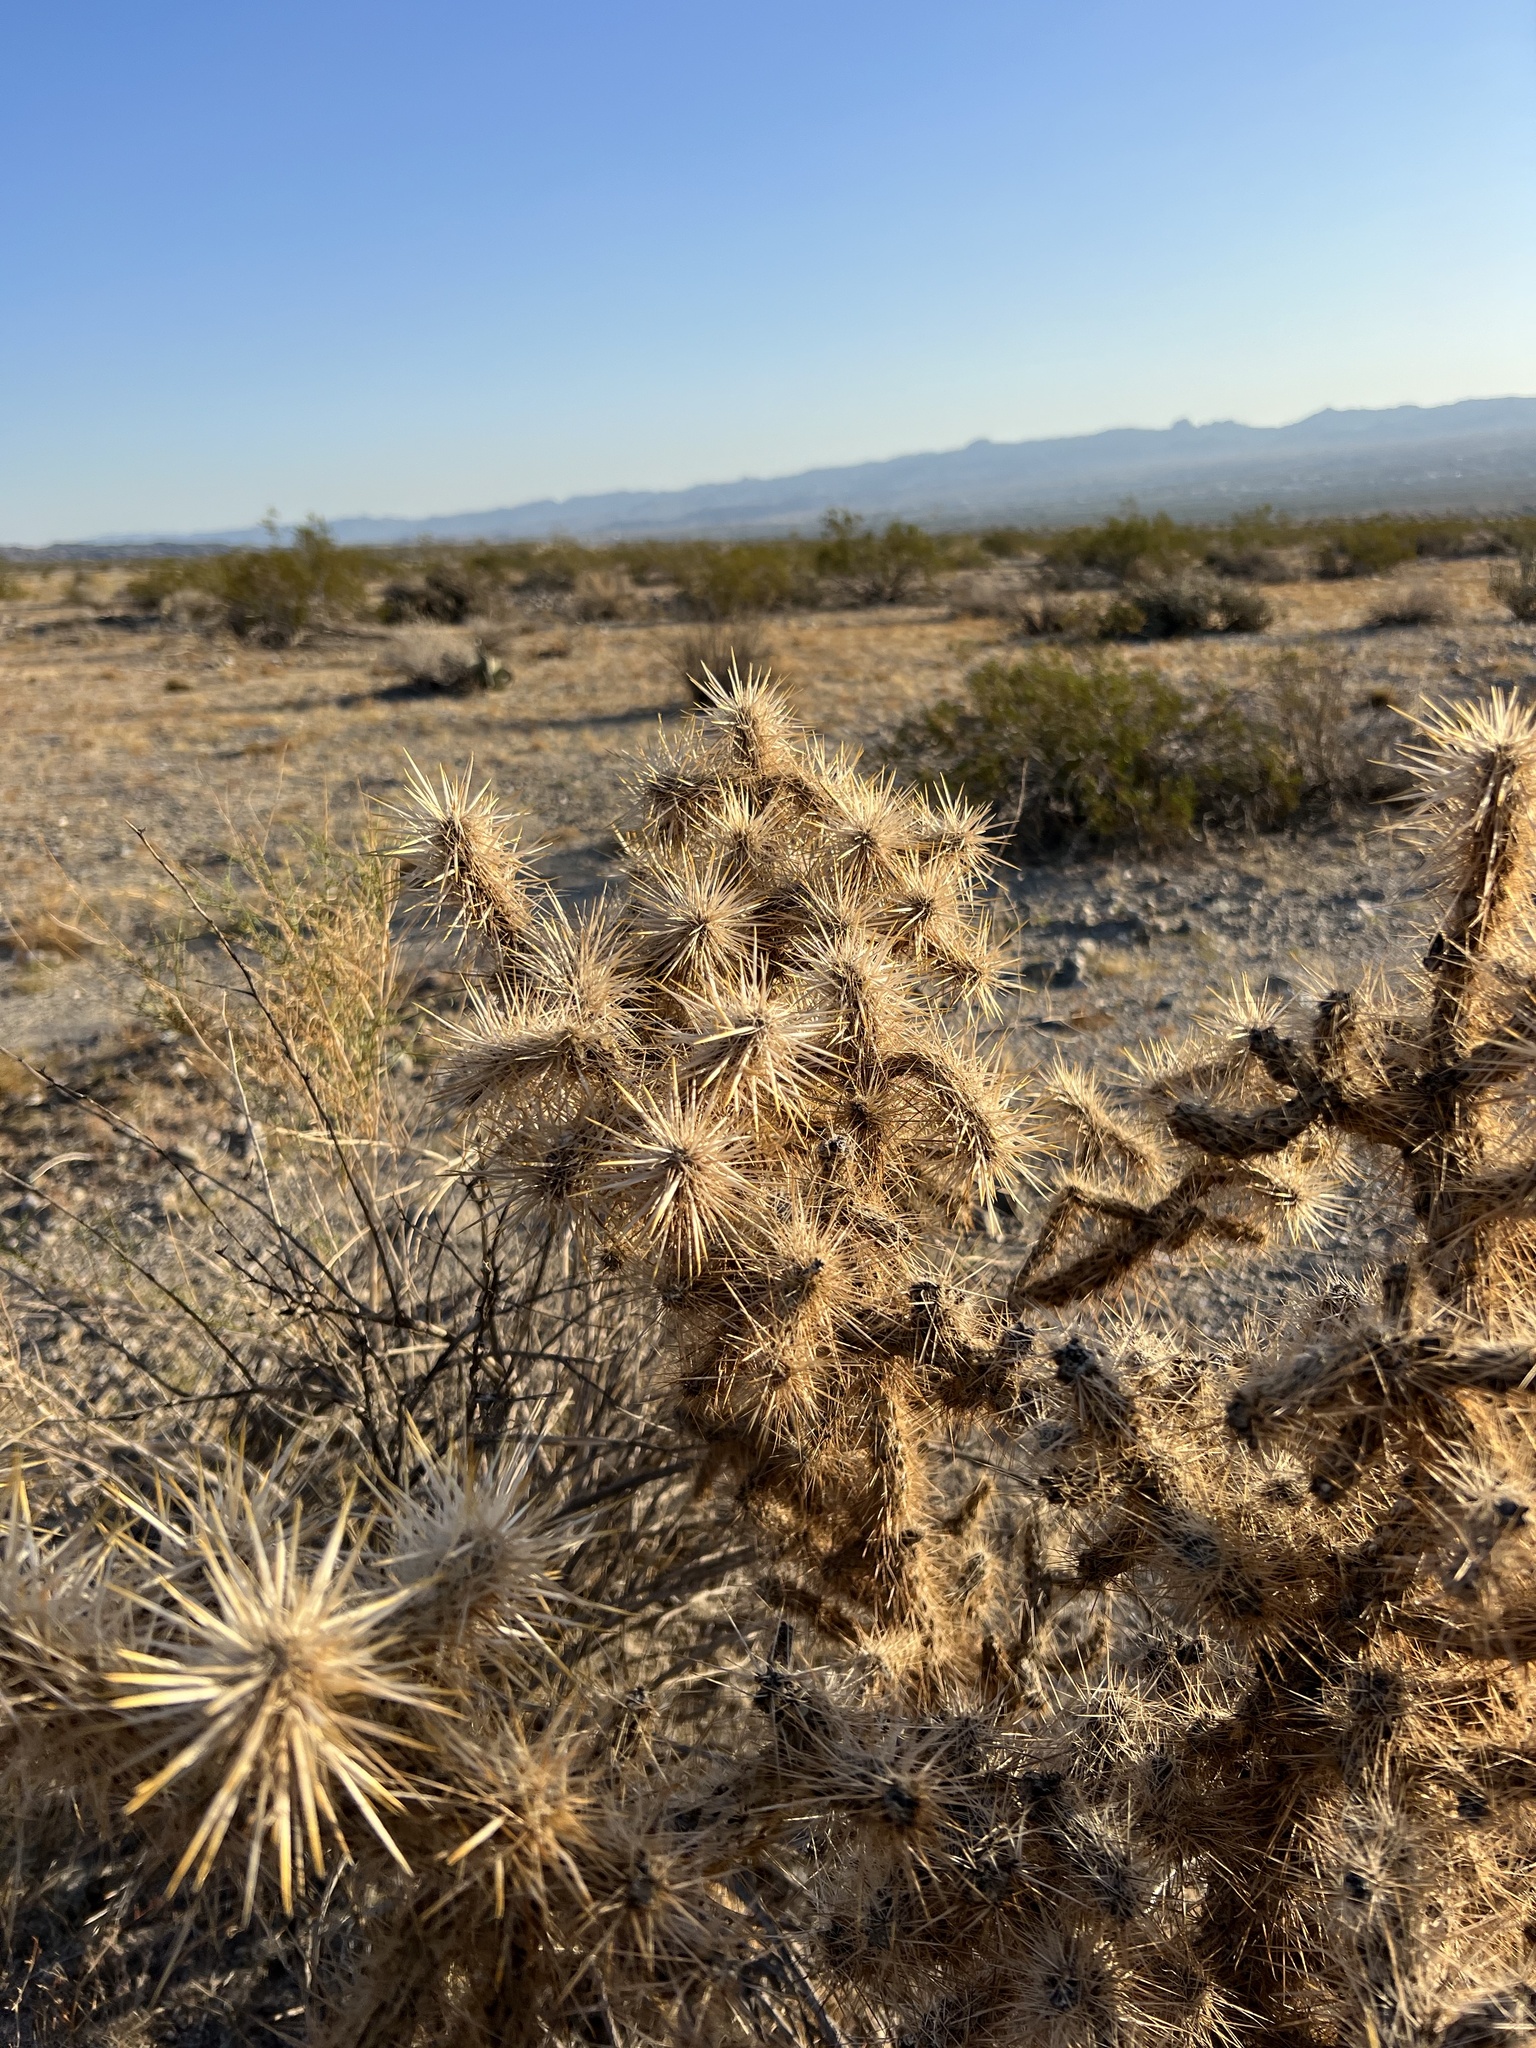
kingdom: Plantae
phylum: Tracheophyta
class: Magnoliopsida
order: Caryophyllales
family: Cactaceae
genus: Cylindropuntia
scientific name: Cylindropuntia echinocarpa
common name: Ground cholla
